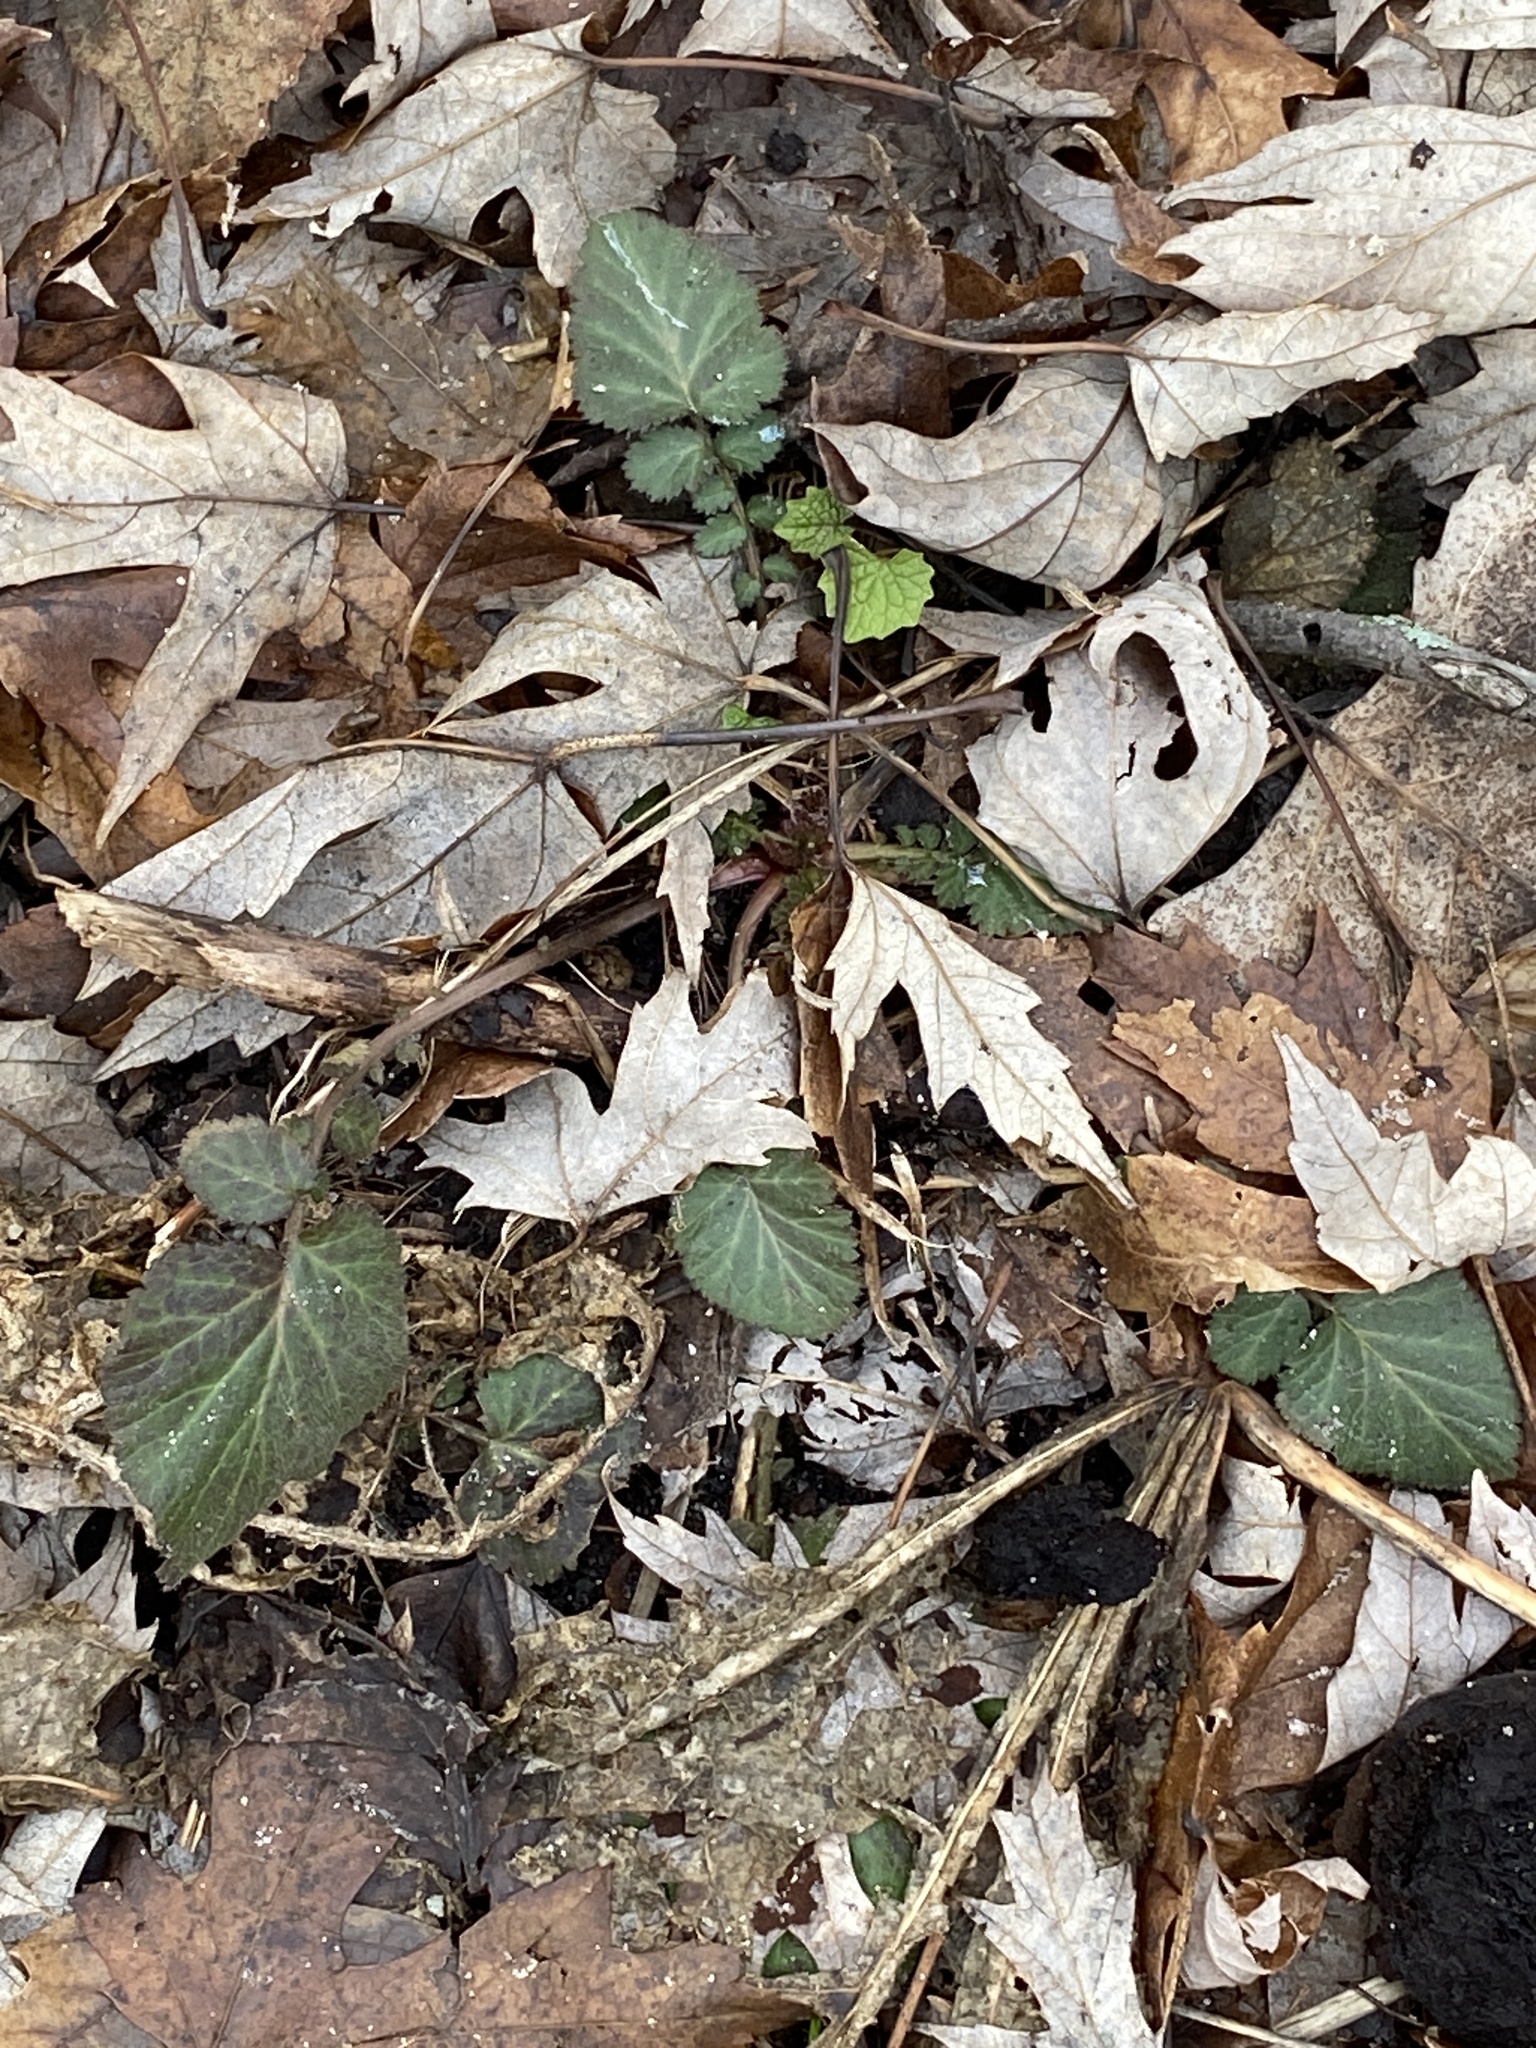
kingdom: Plantae
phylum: Tracheophyta
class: Magnoliopsida
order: Rosales
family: Rosaceae
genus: Geum
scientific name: Geum canadense
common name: White avens
